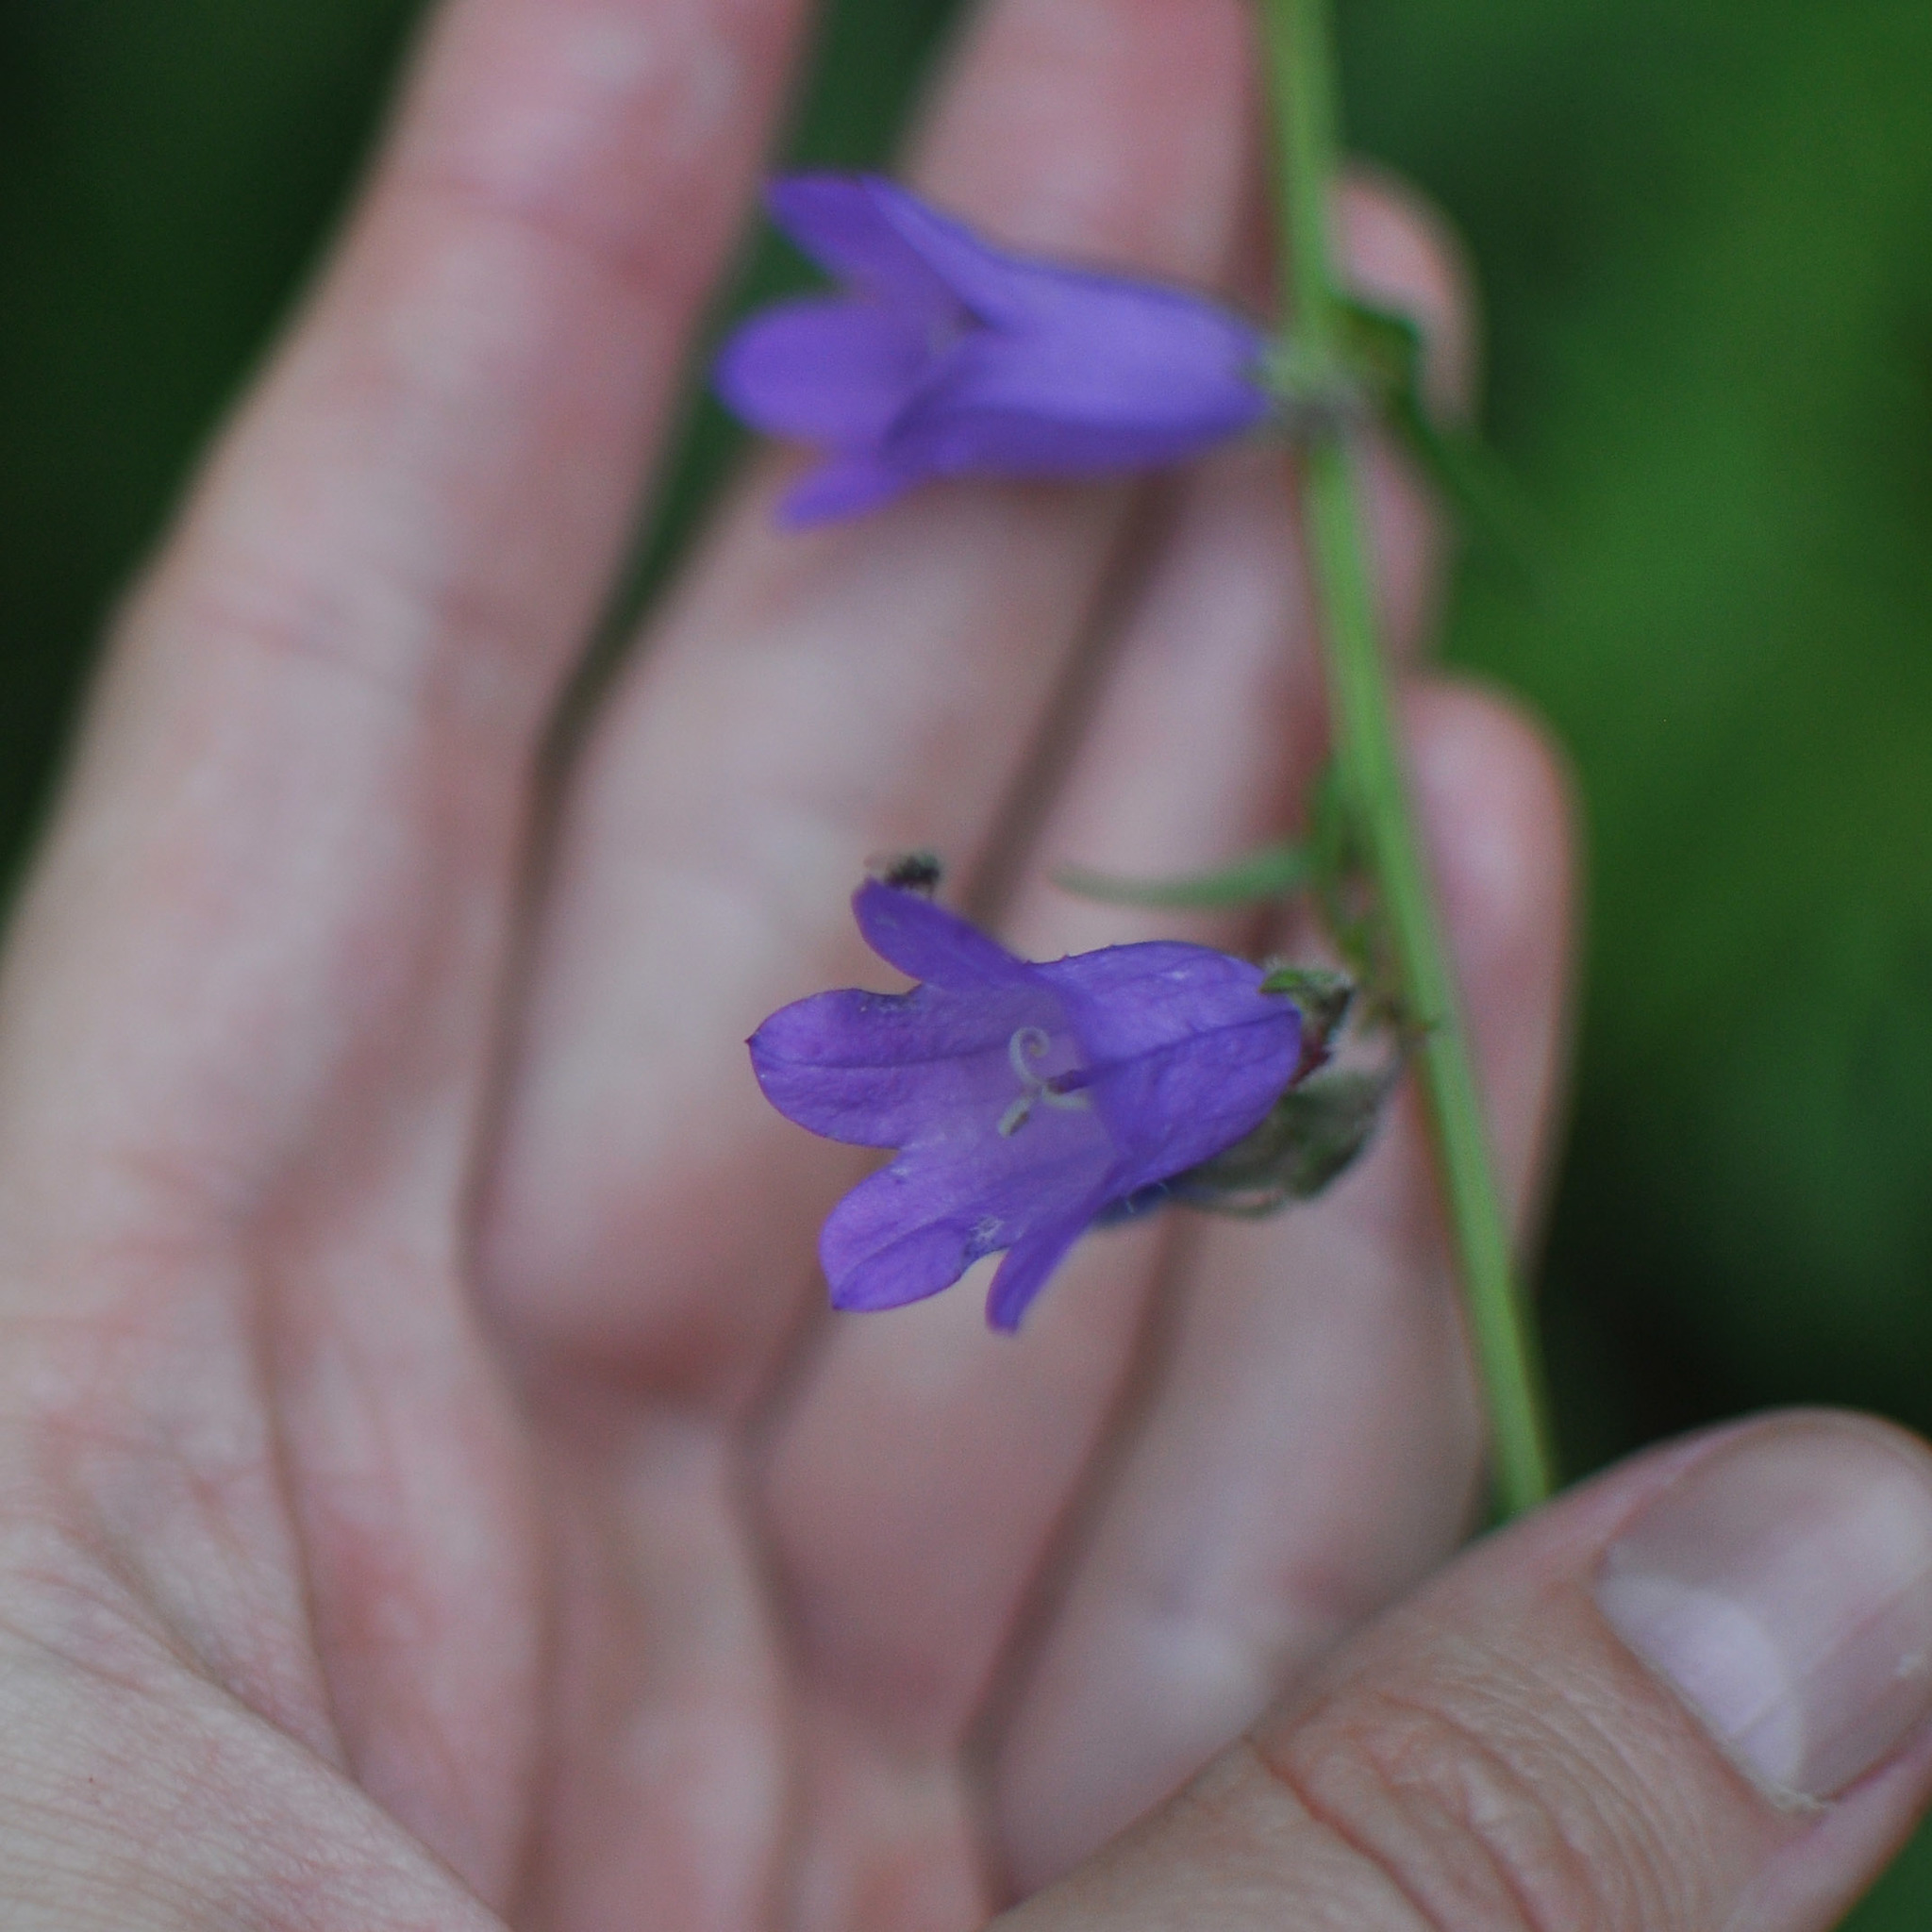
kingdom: Plantae
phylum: Tracheophyta
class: Magnoliopsida
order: Asterales
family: Campanulaceae
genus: Campanula
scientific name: Campanula sibirica
